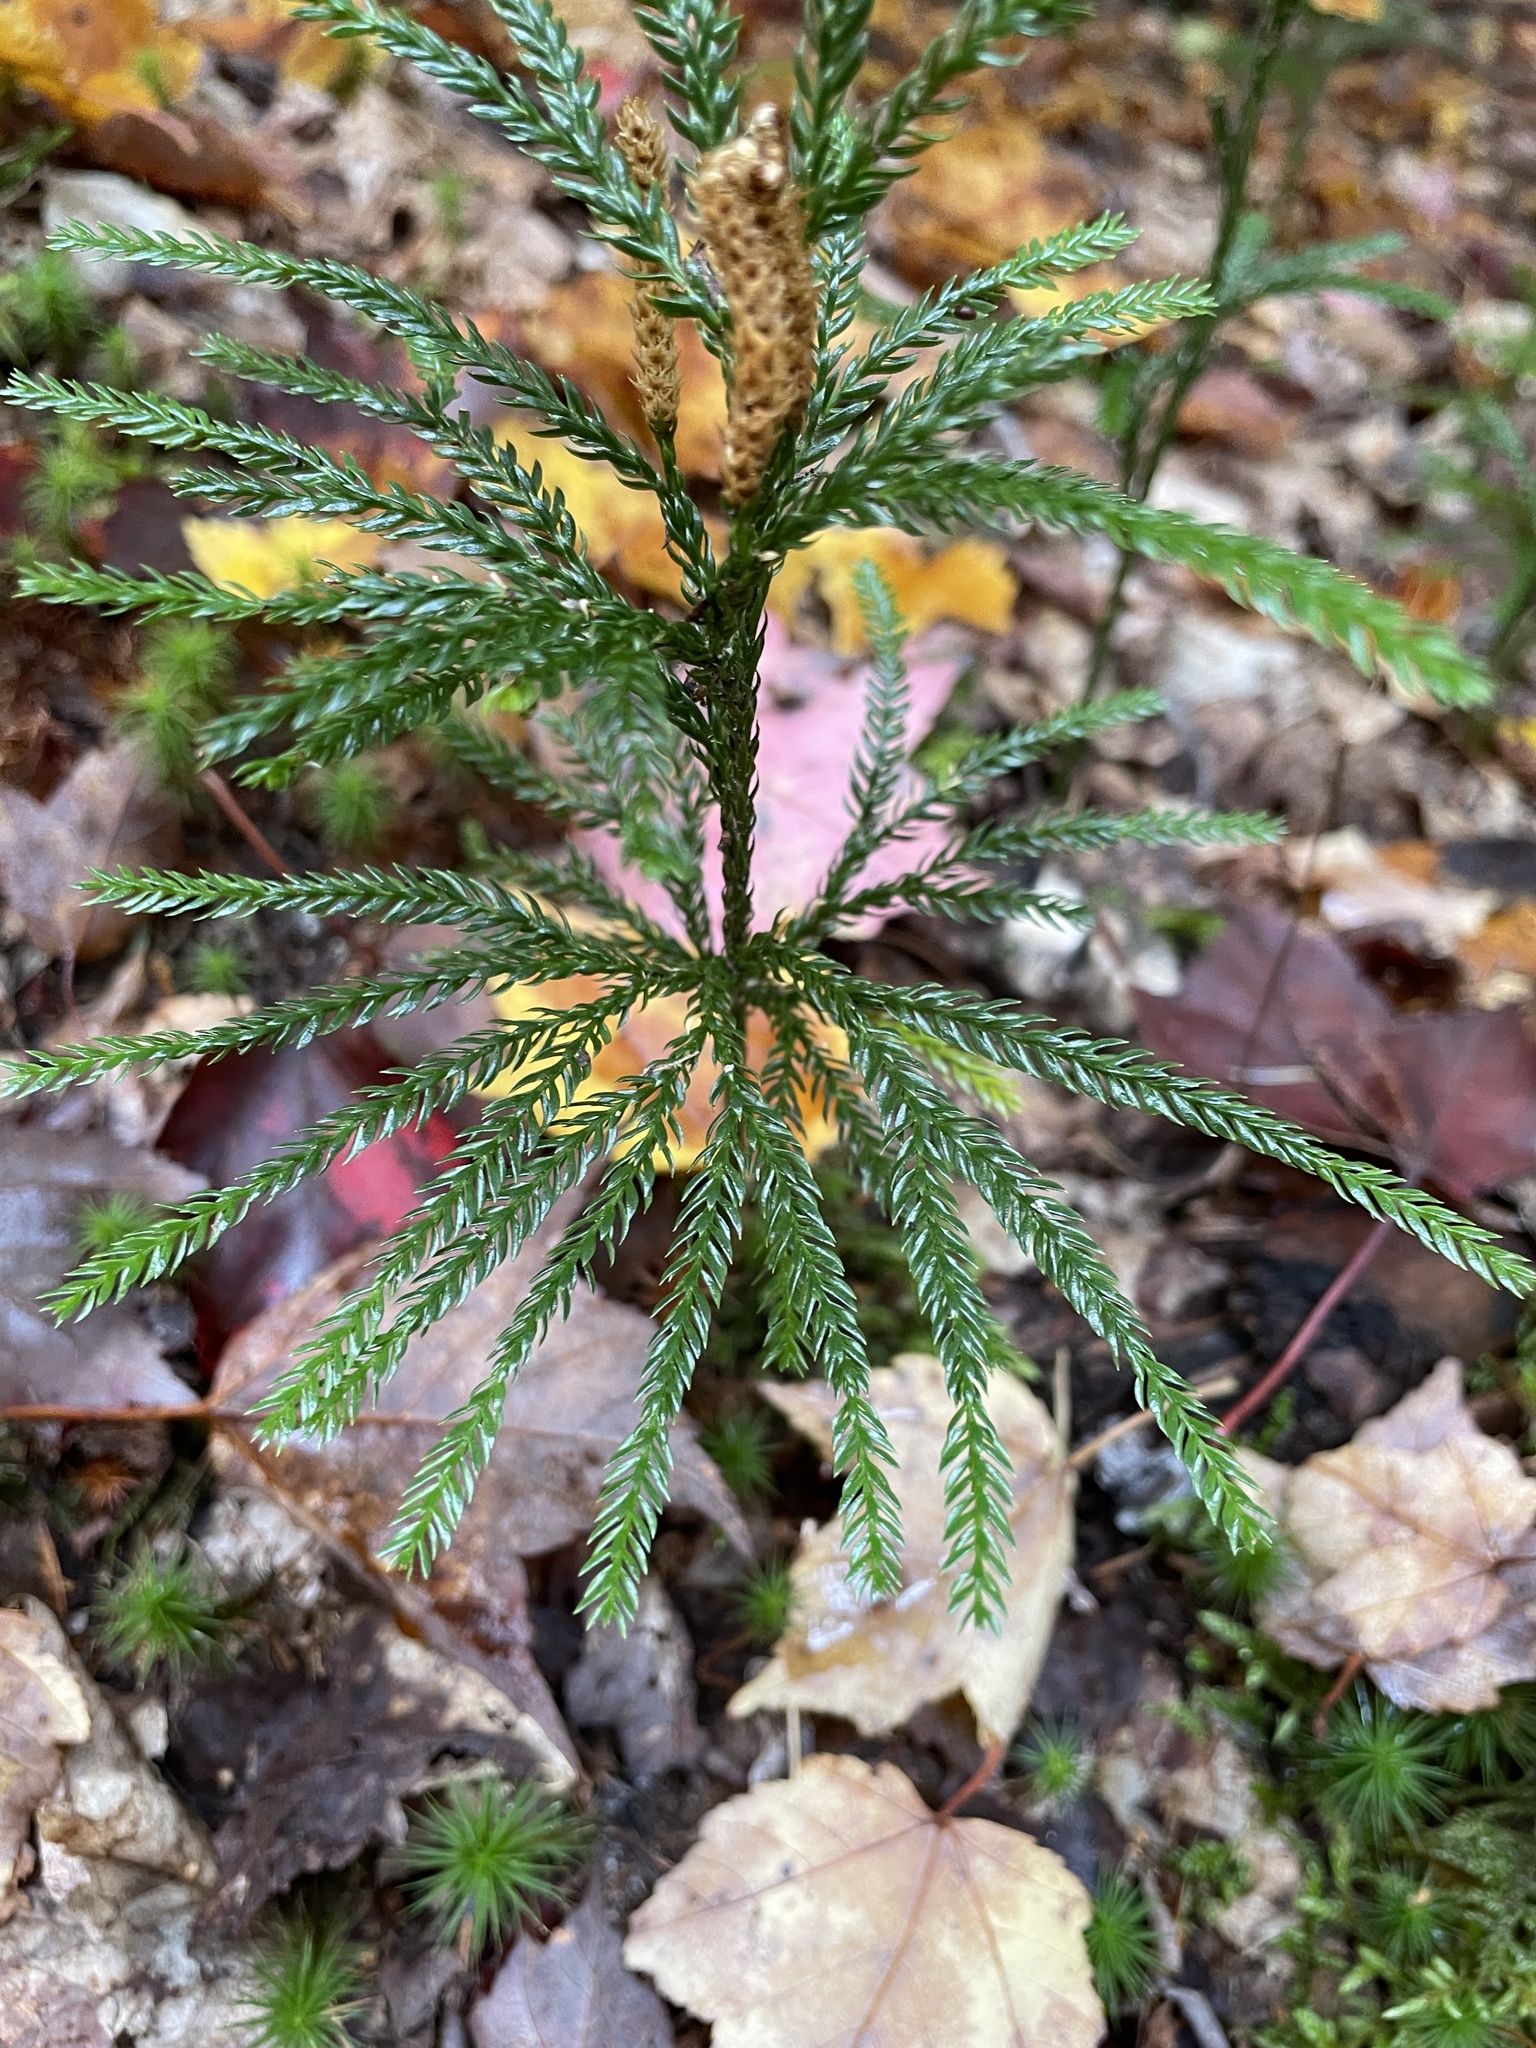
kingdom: Plantae
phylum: Tracheophyta
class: Lycopodiopsida
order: Lycopodiales
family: Lycopodiaceae
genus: Dendrolycopodium
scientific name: Dendrolycopodium obscurum
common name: Common ground-pine
